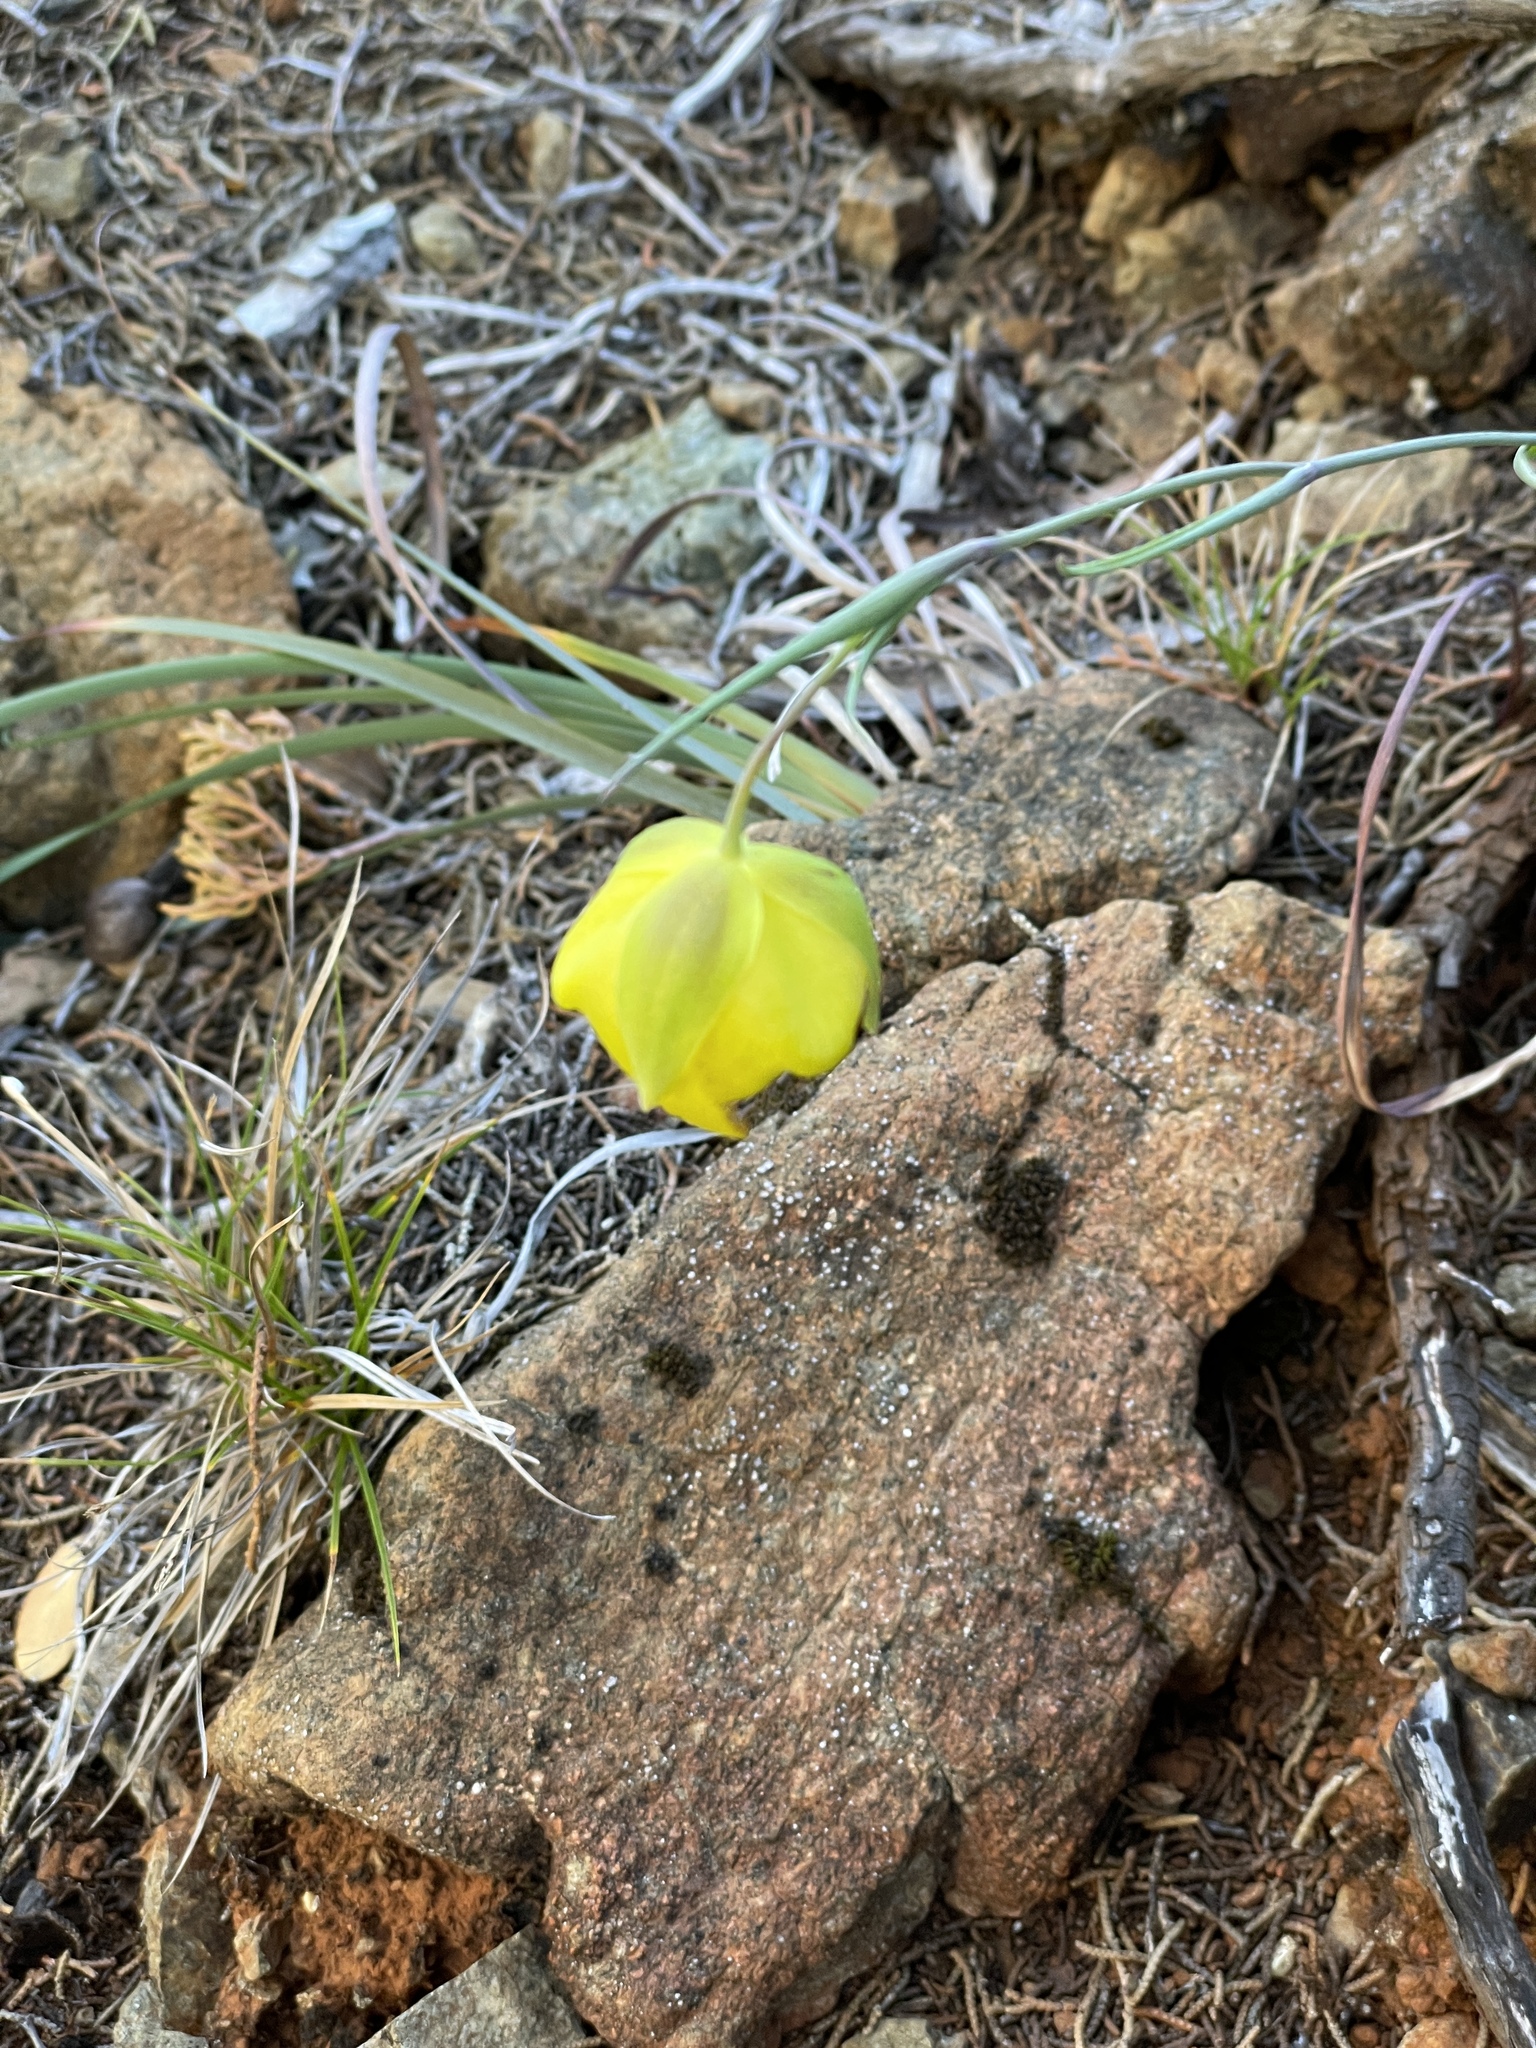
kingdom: Plantae
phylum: Tracheophyta
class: Liliopsida
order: Liliales
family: Liliaceae
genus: Calochortus
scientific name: Calochortus raichei
